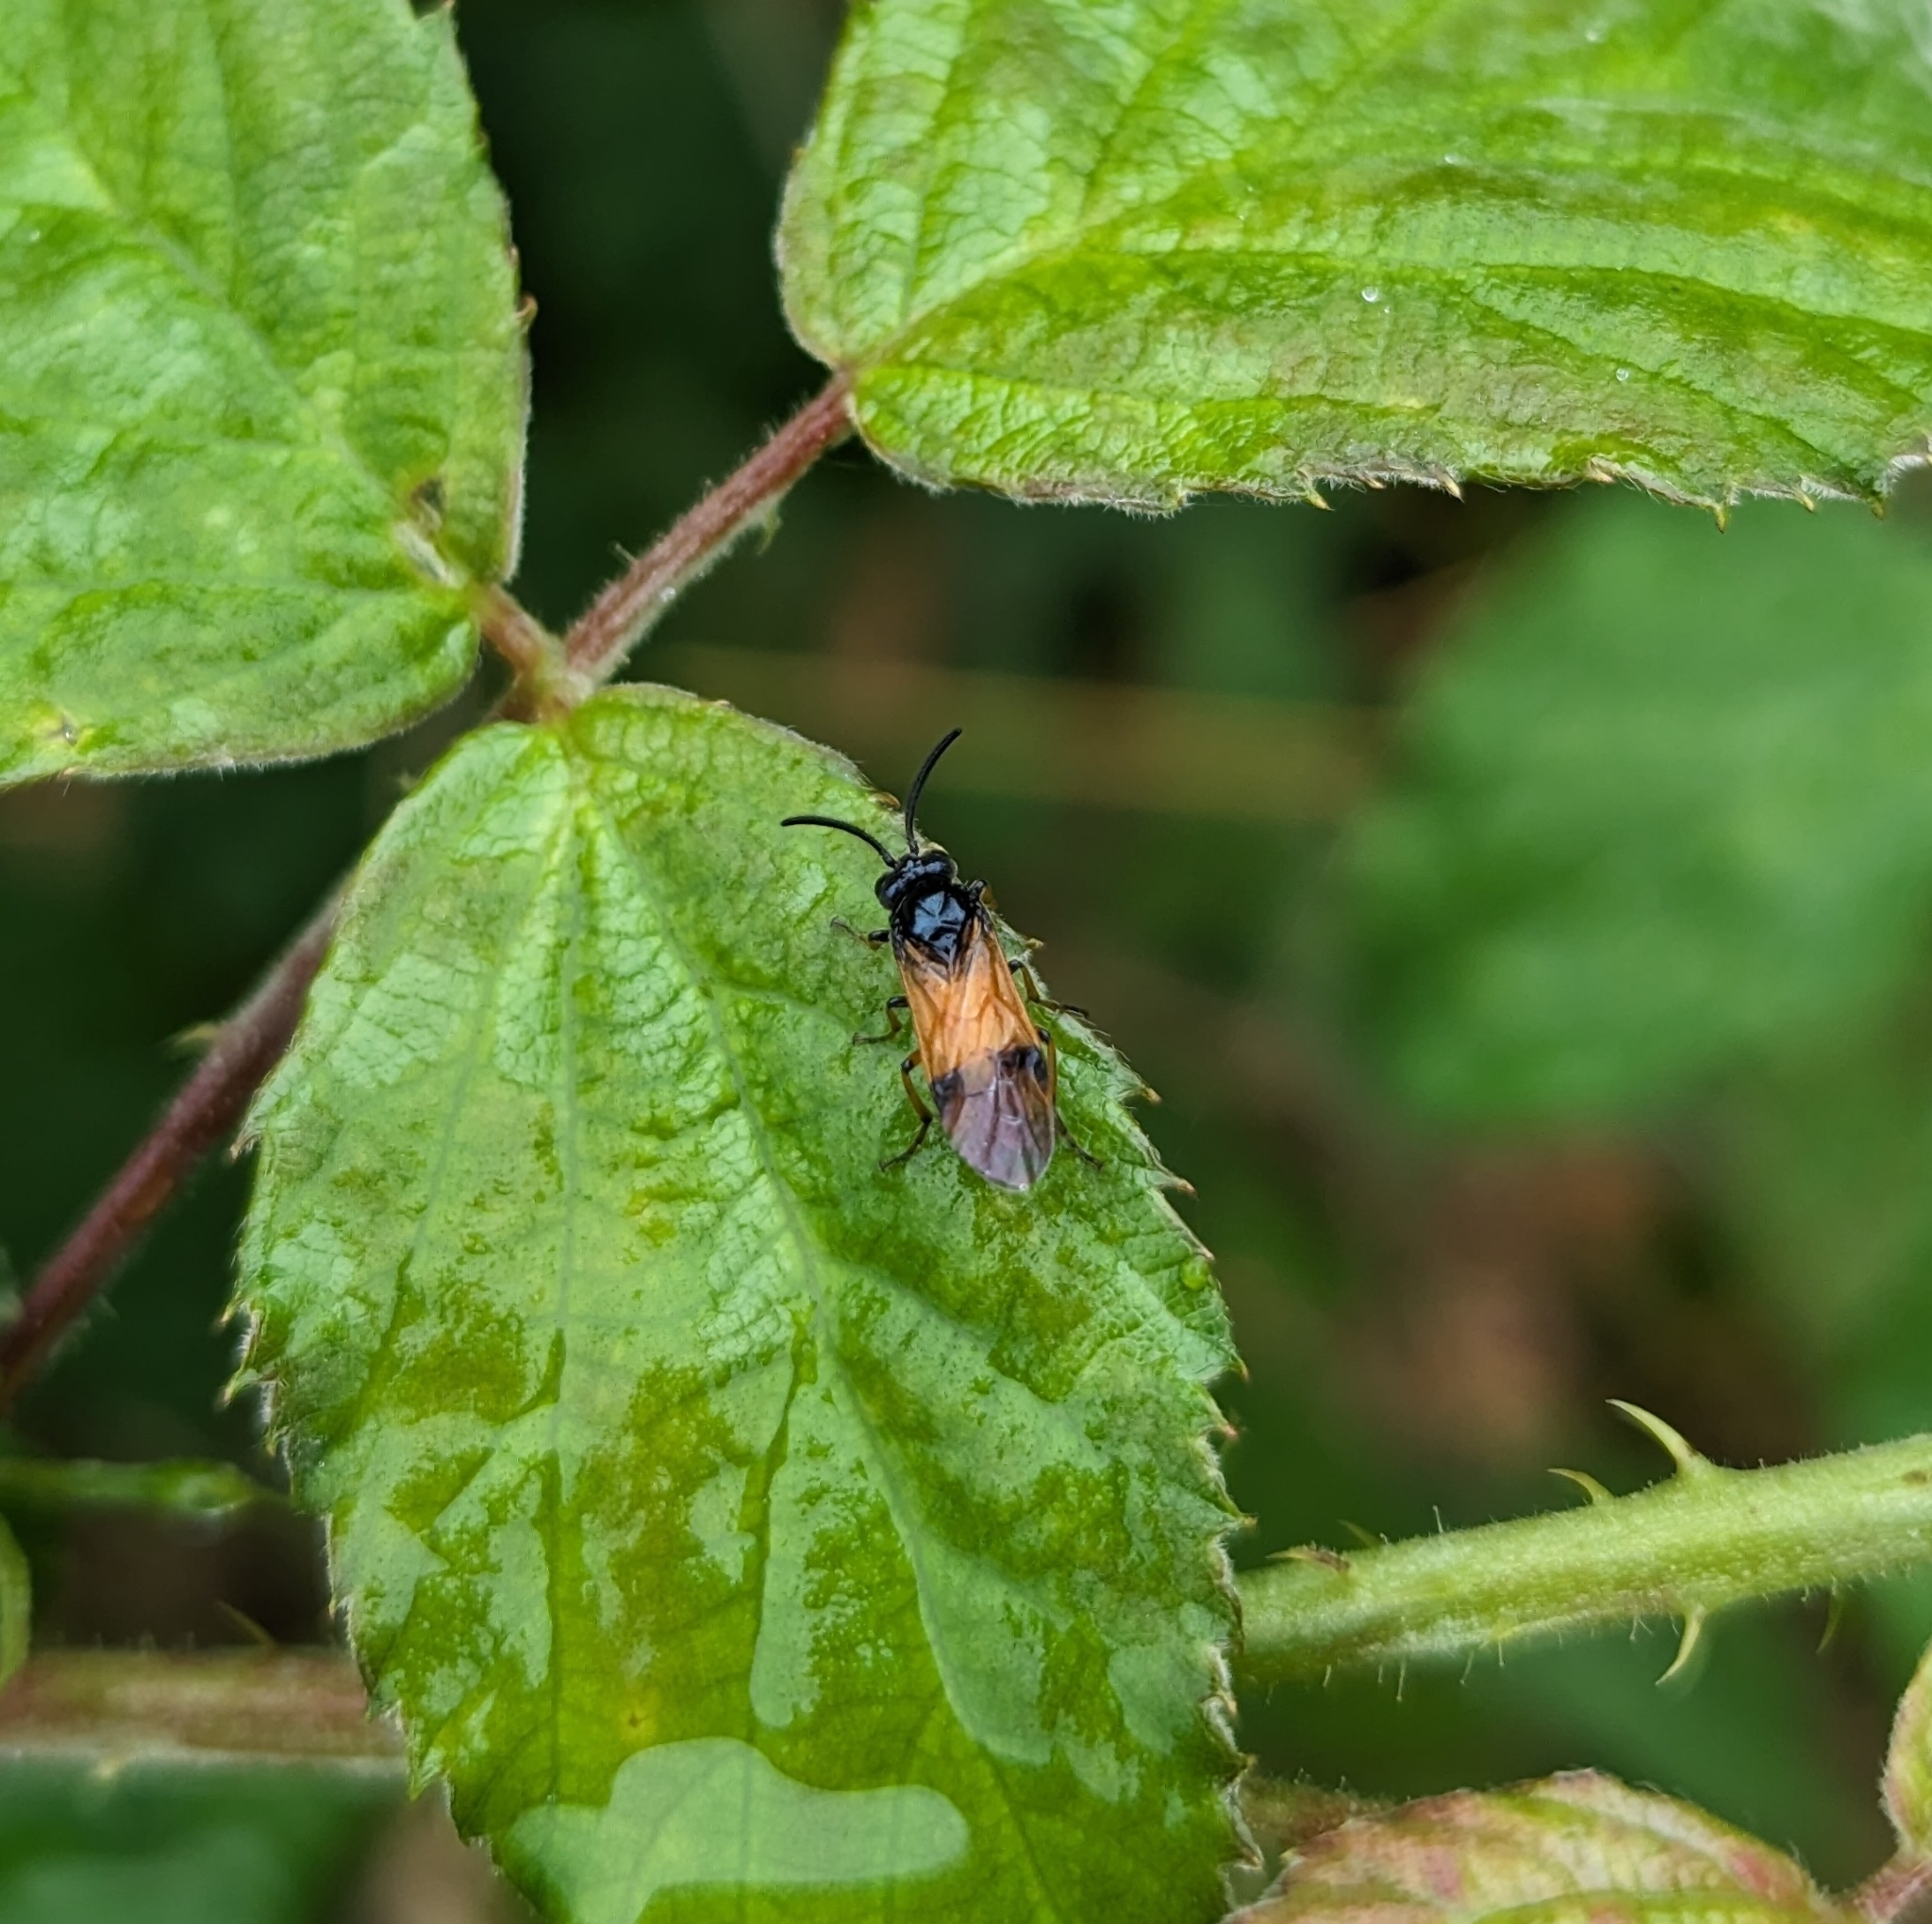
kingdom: Animalia
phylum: Arthropoda
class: Insecta
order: Hymenoptera
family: Argidae
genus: Arge
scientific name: Arge cyanocrocea
